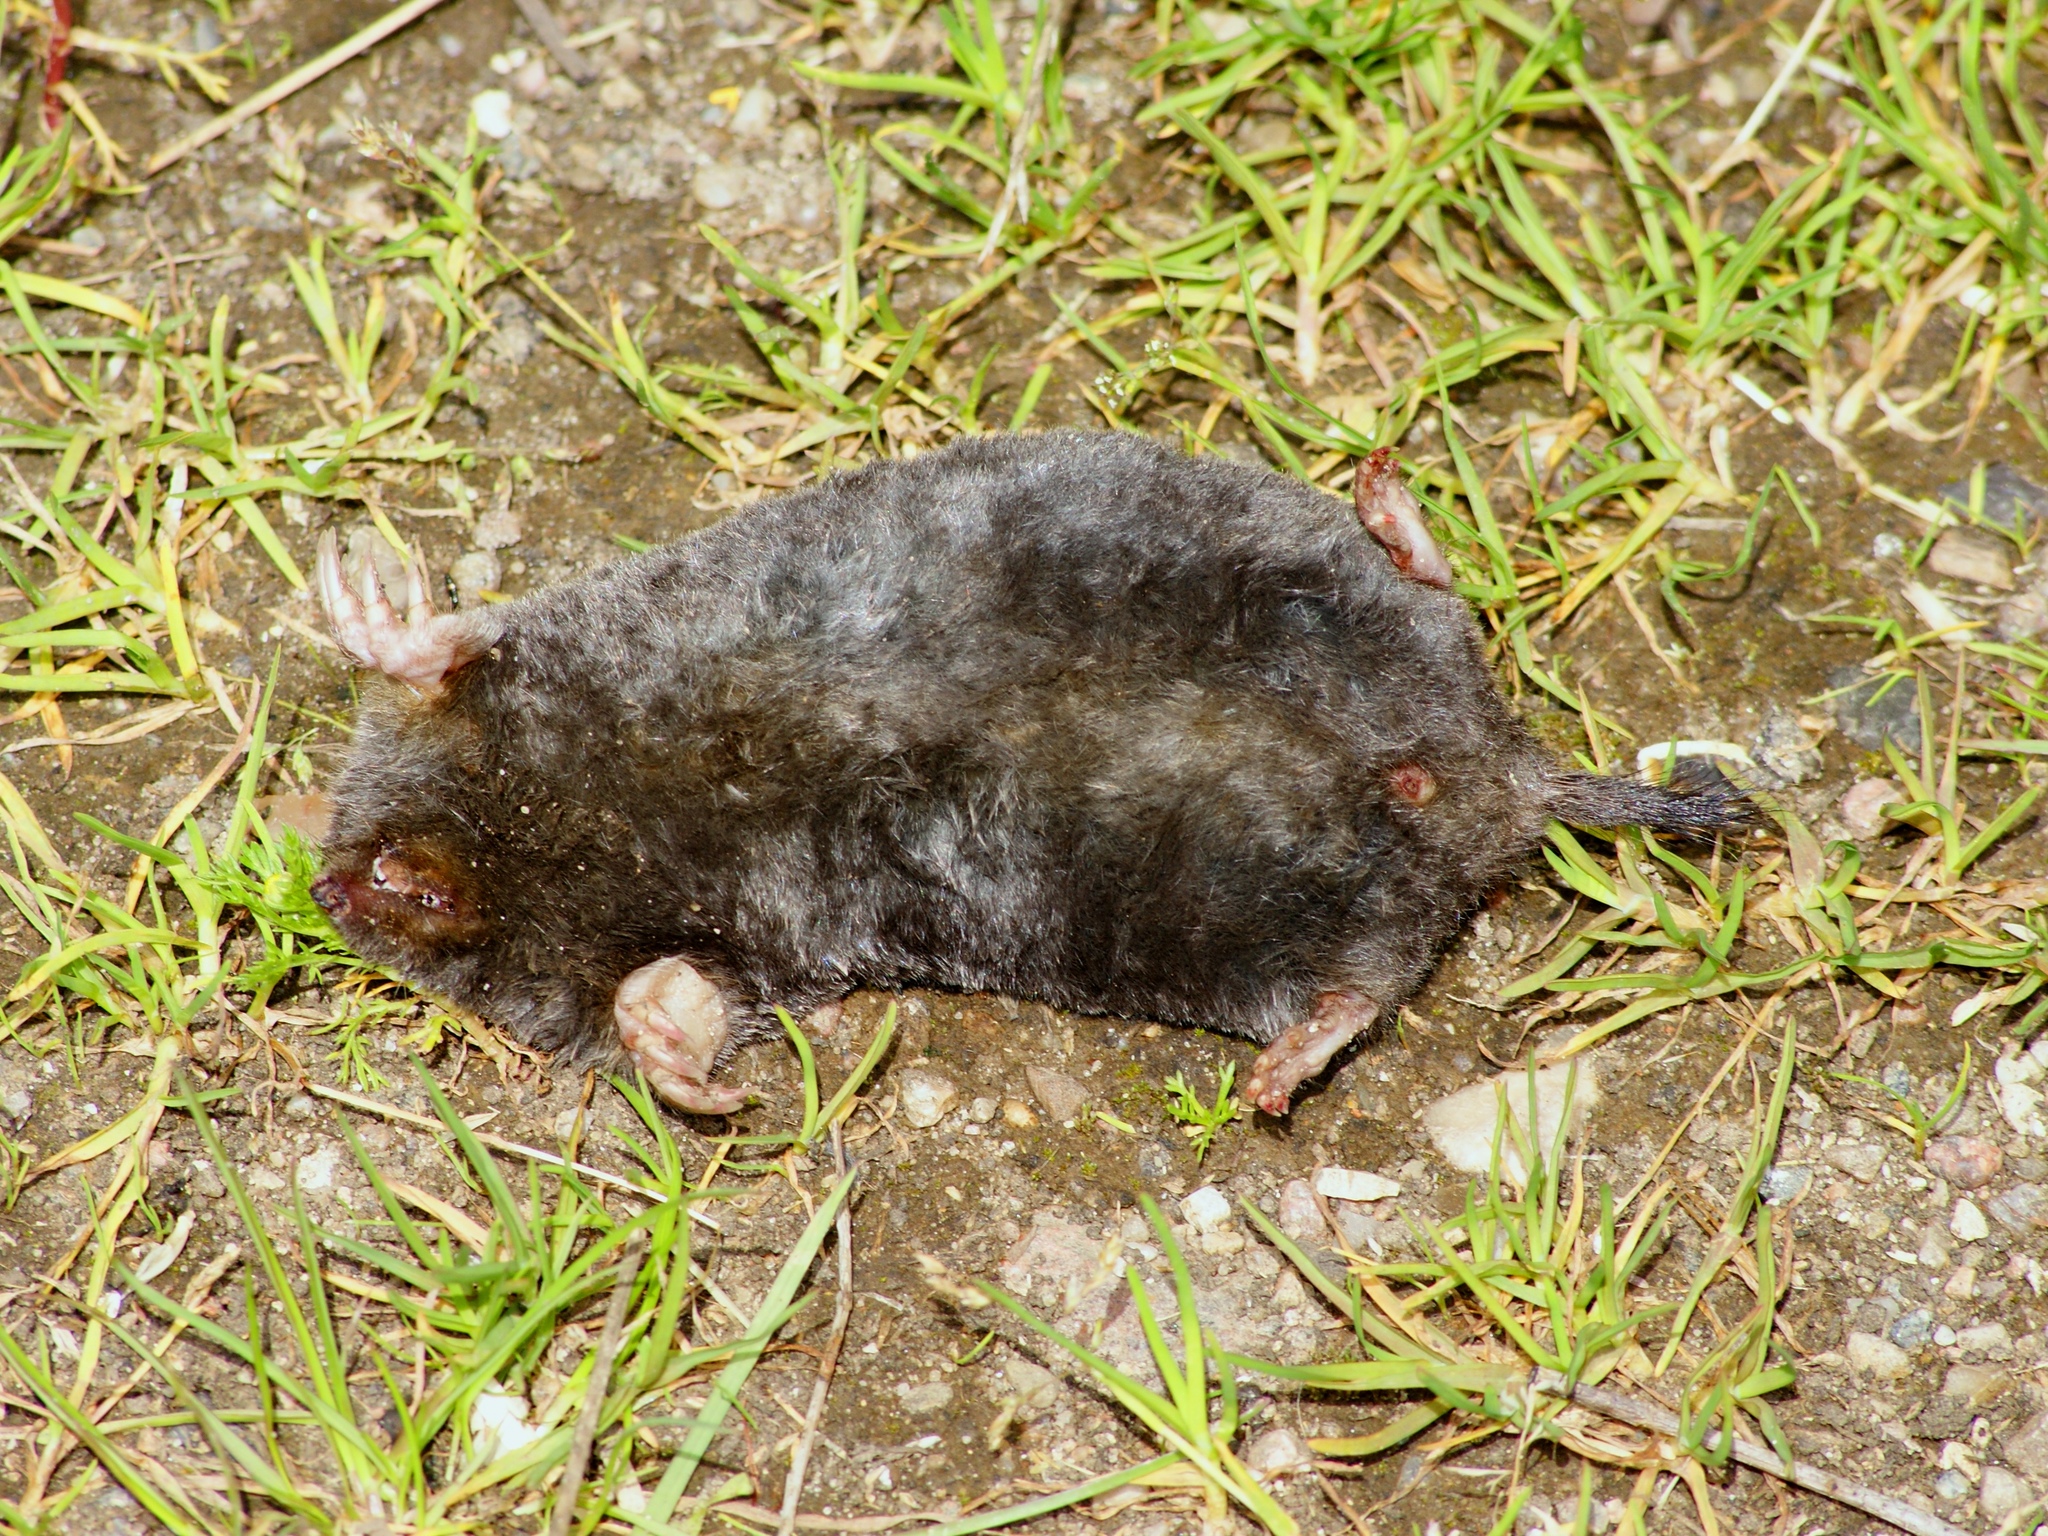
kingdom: Animalia
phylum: Chordata
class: Mammalia
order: Soricomorpha
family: Talpidae
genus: Talpa
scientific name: Talpa europaea
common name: European mole
